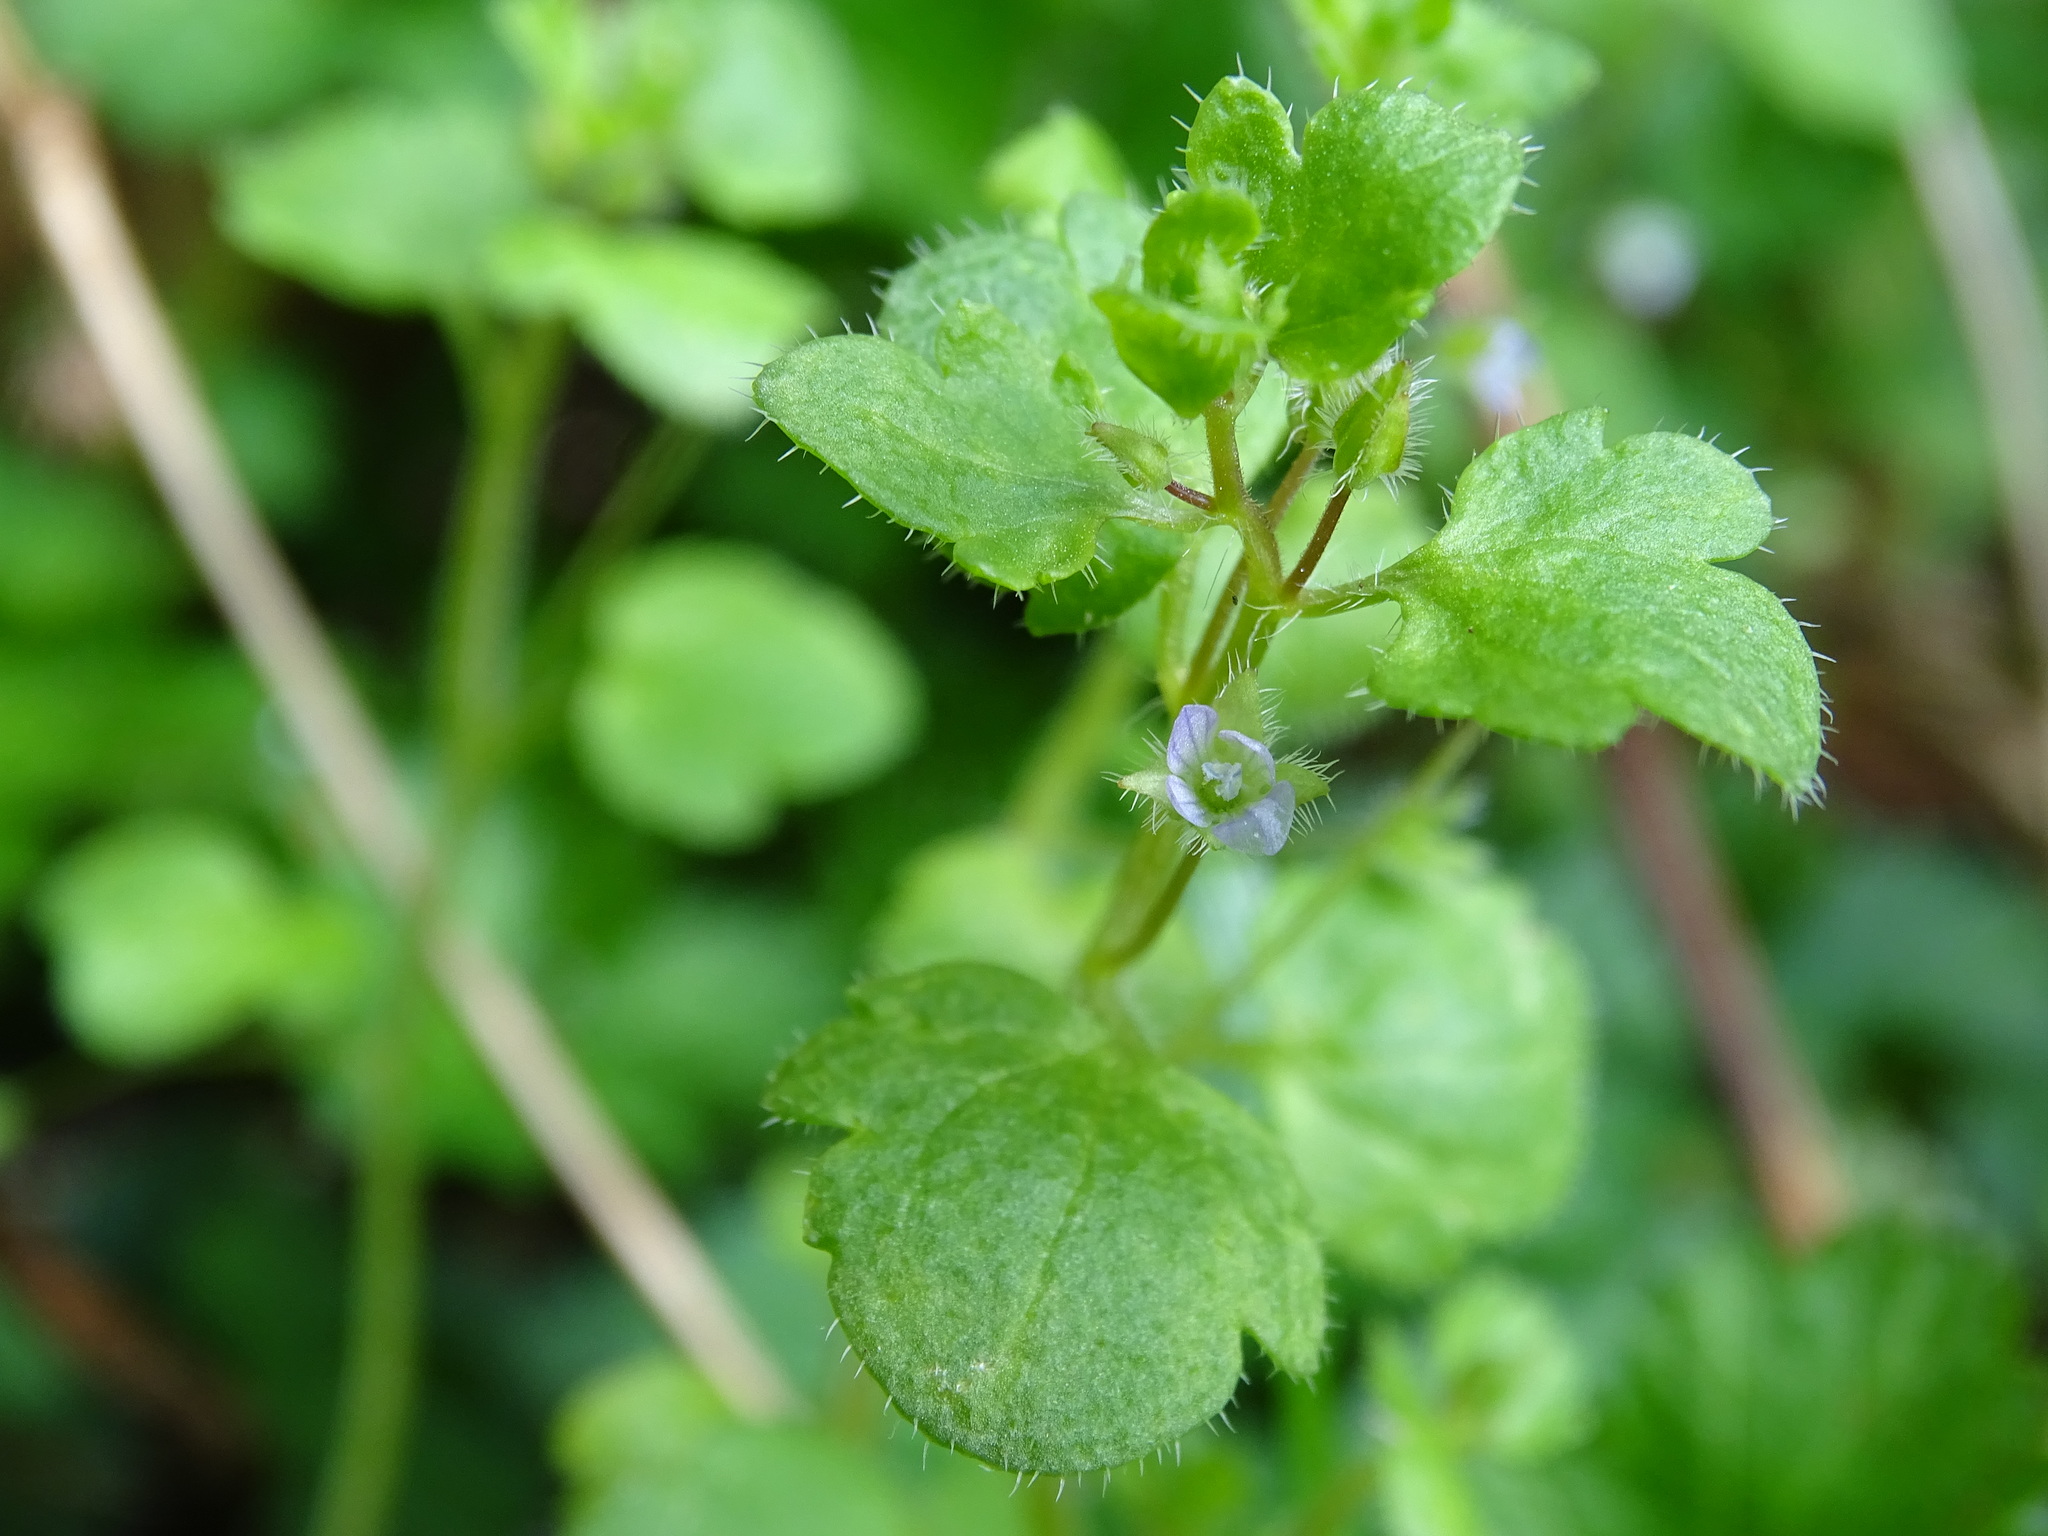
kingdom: Plantae
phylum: Tracheophyta
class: Magnoliopsida
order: Lamiales
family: Plantaginaceae
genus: Veronica
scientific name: Veronica hederifolia
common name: Ivy-leaved speedwell
